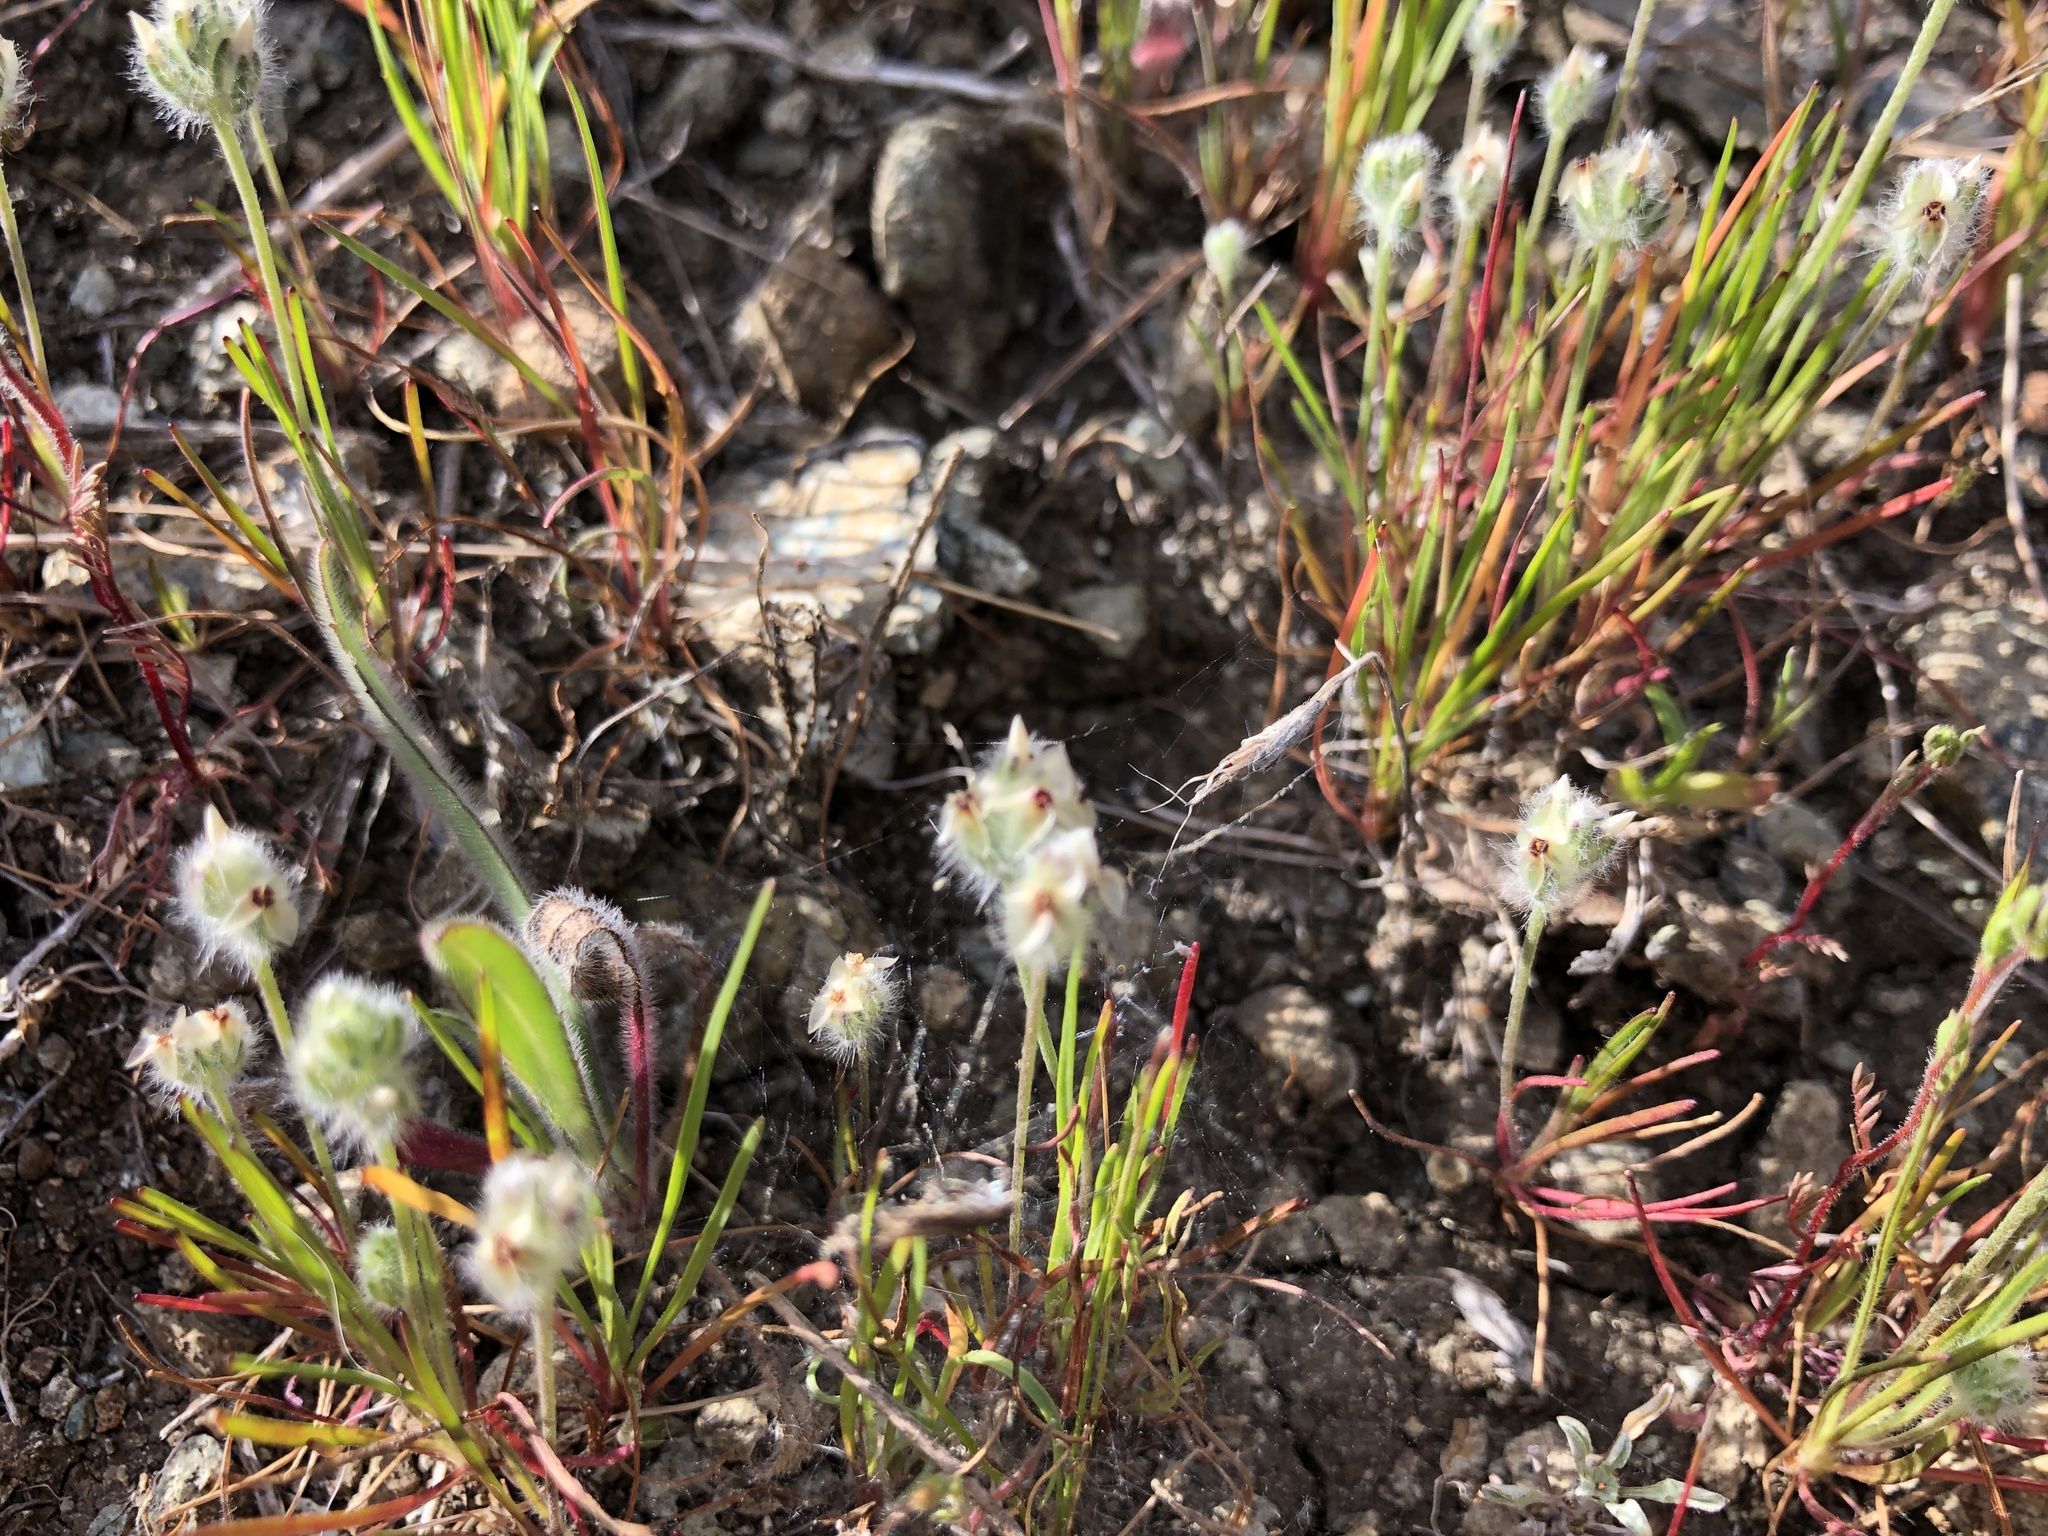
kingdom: Plantae
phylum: Tracheophyta
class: Magnoliopsida
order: Lamiales
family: Plantaginaceae
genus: Plantago
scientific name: Plantago erecta
